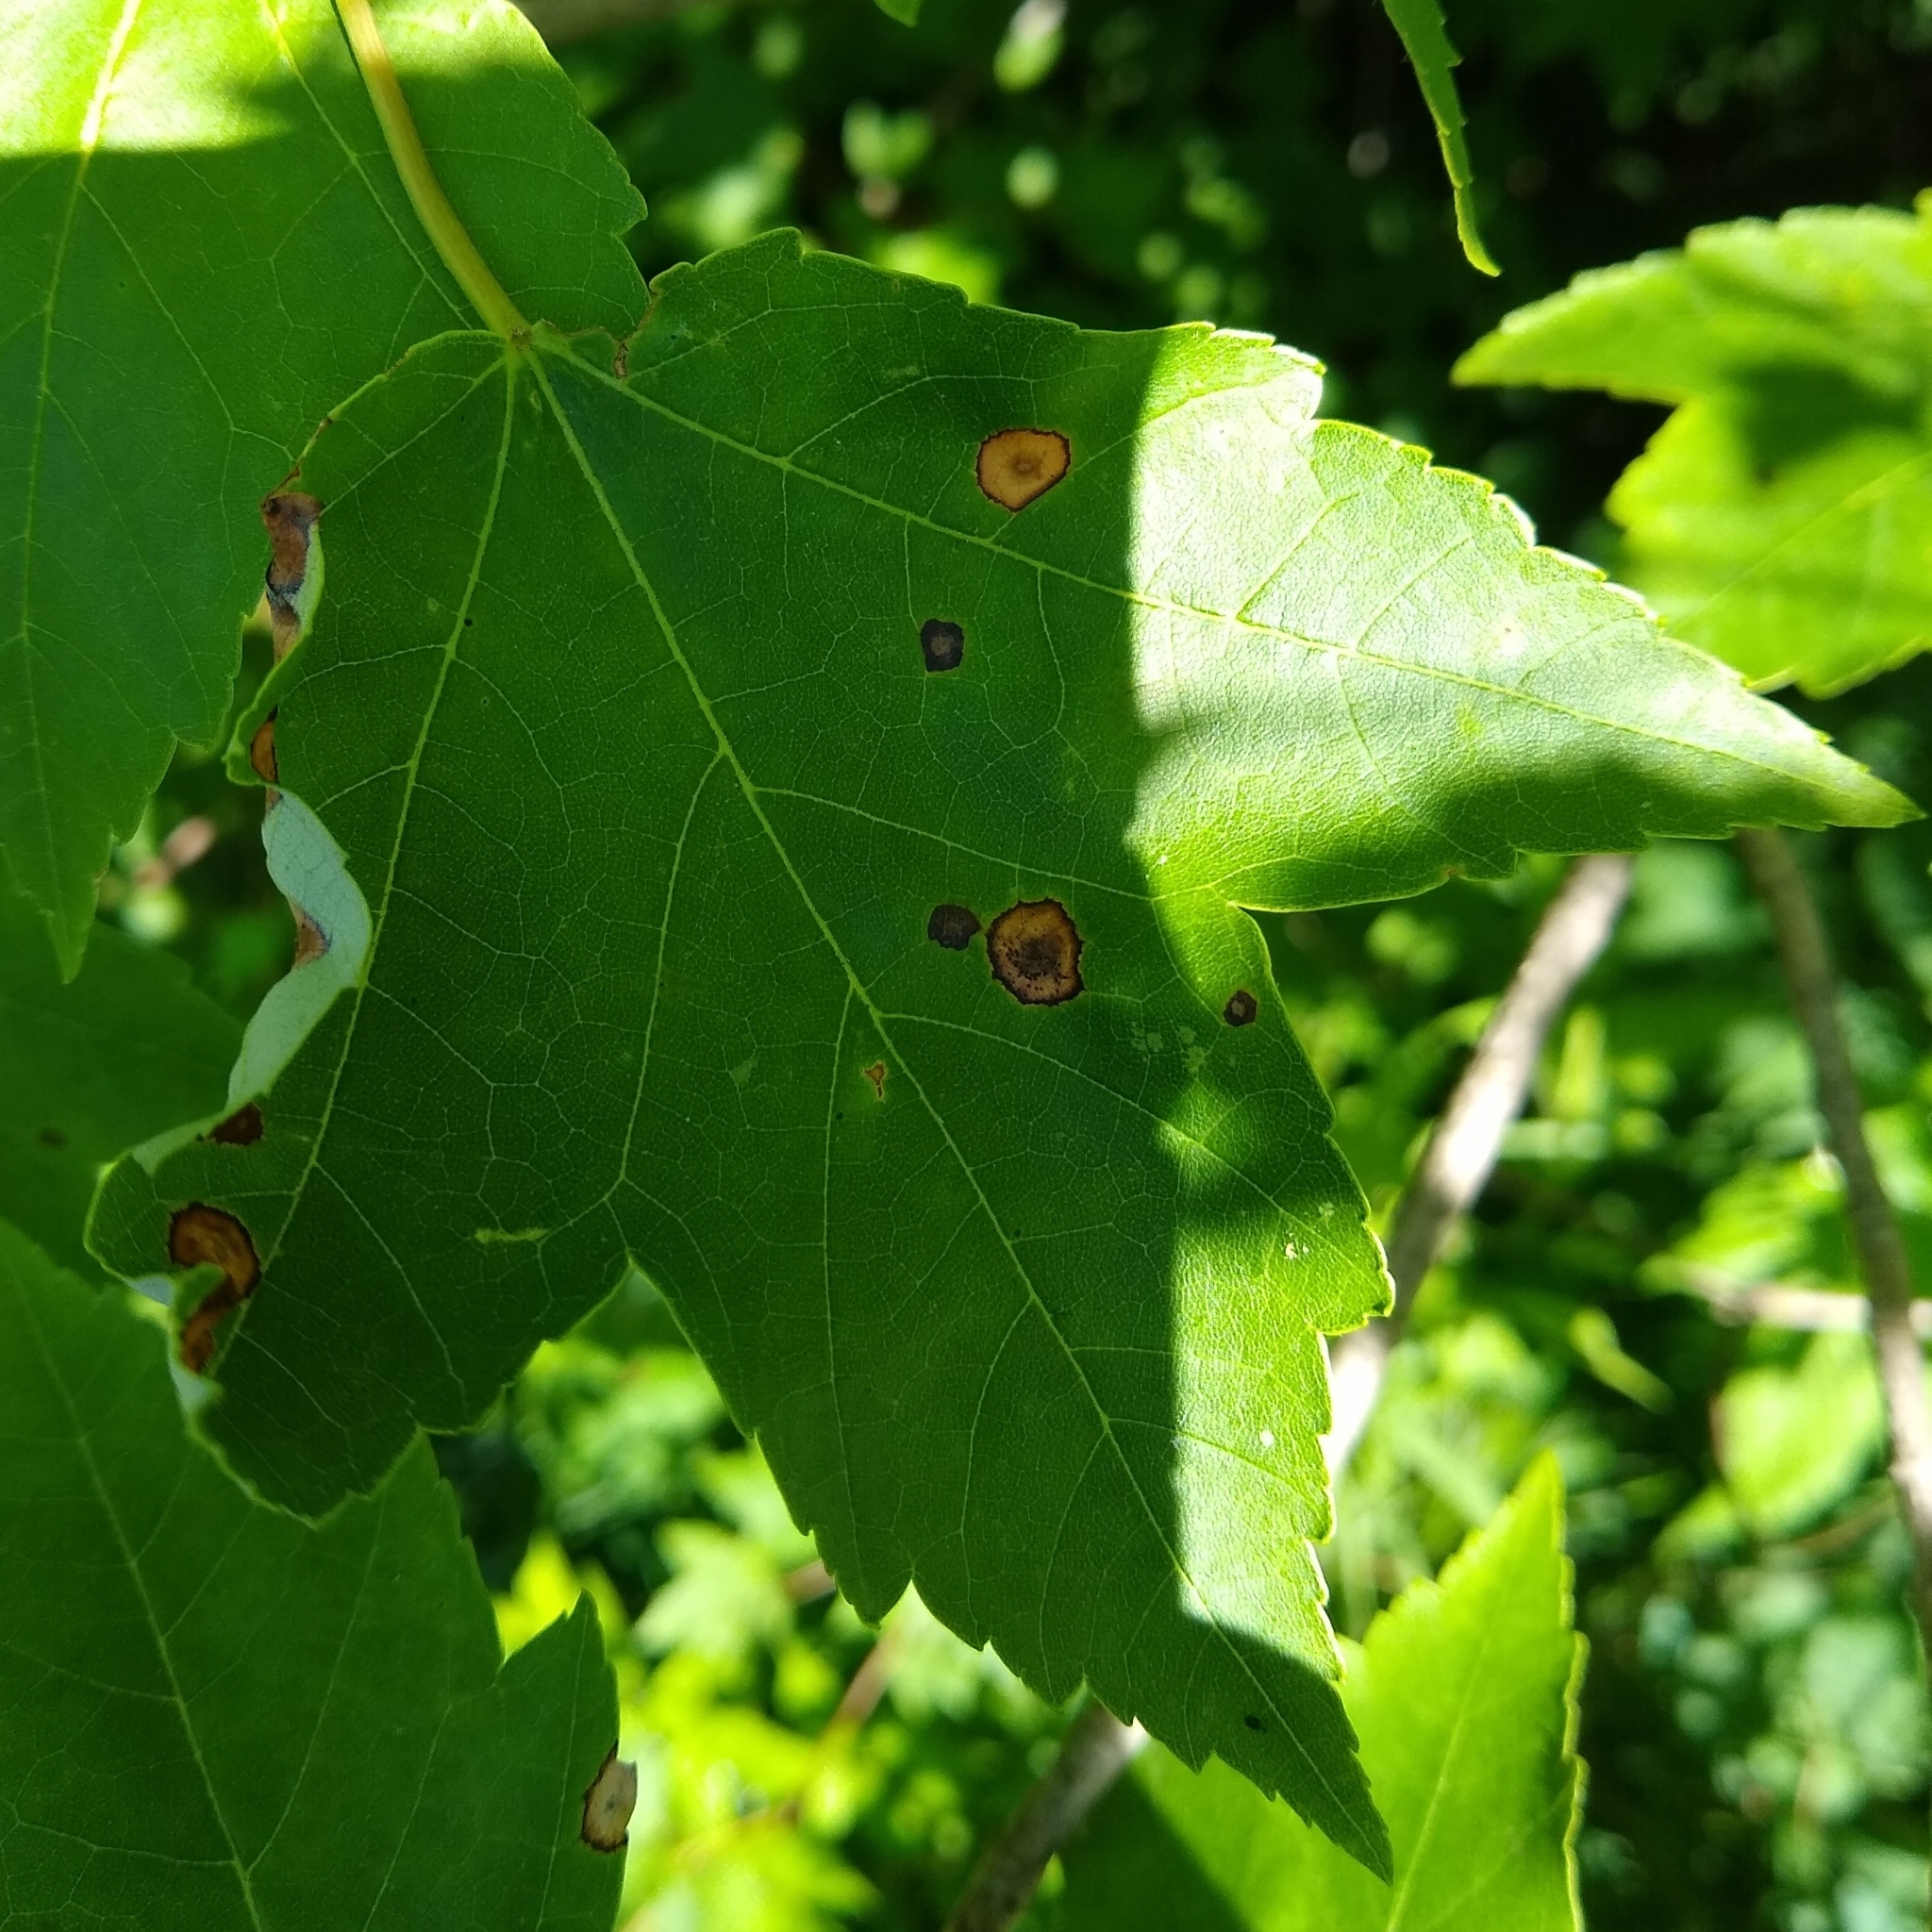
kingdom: Plantae
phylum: Tracheophyta
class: Magnoliopsida
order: Sapindales
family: Sapindaceae
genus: Acer
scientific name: Acer rubrum
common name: Red maple
